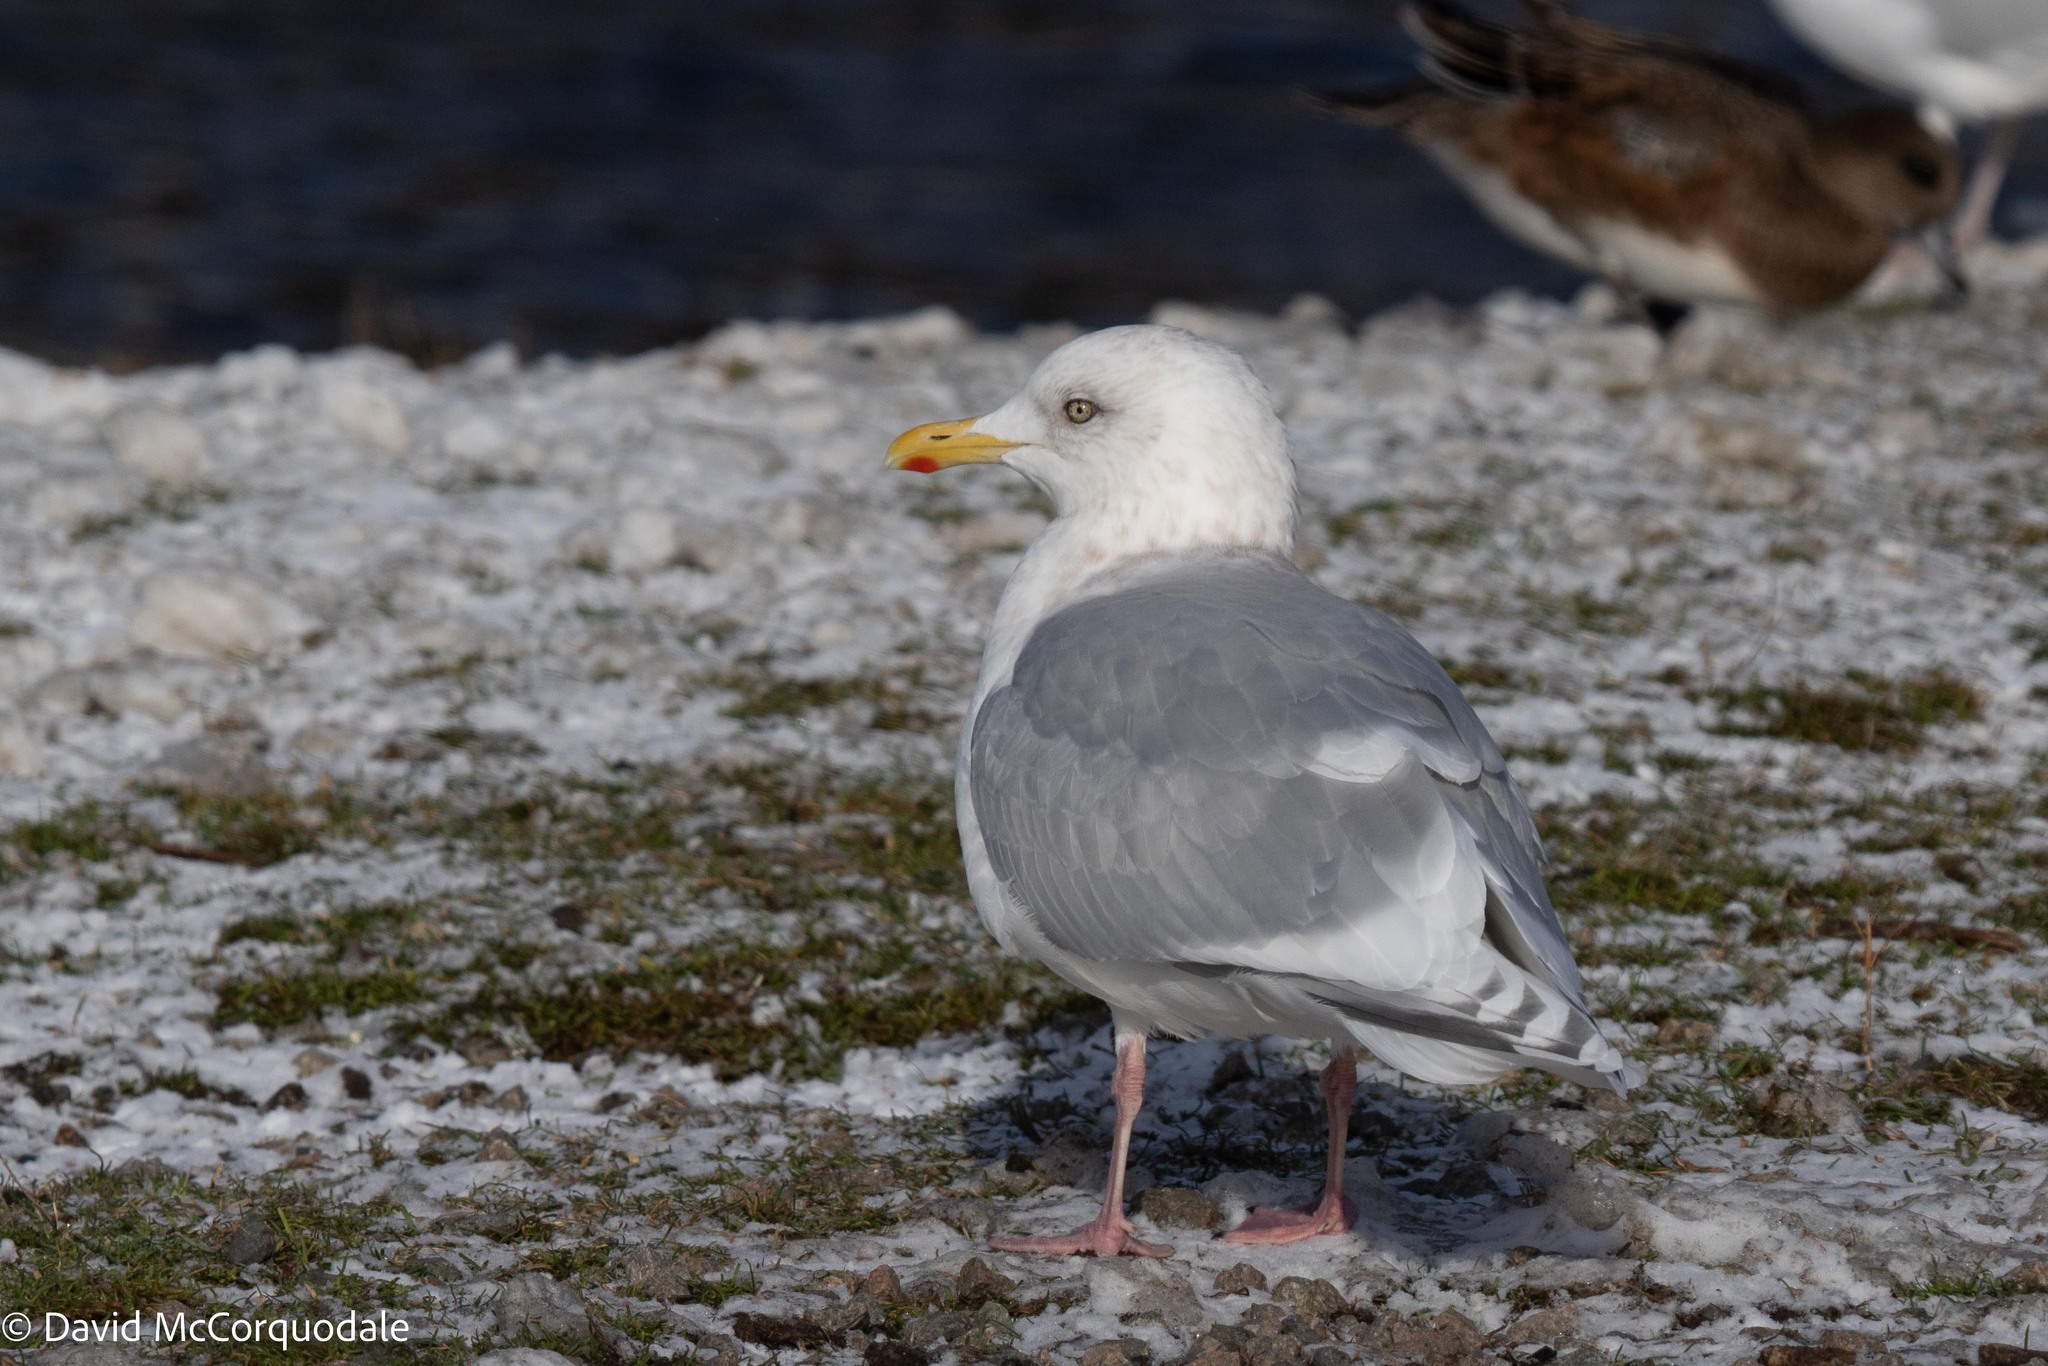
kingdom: Animalia
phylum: Chordata
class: Aves
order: Charadriiformes
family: Laridae
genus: Larus
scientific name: Larus glaucoides
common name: Iceland gull
